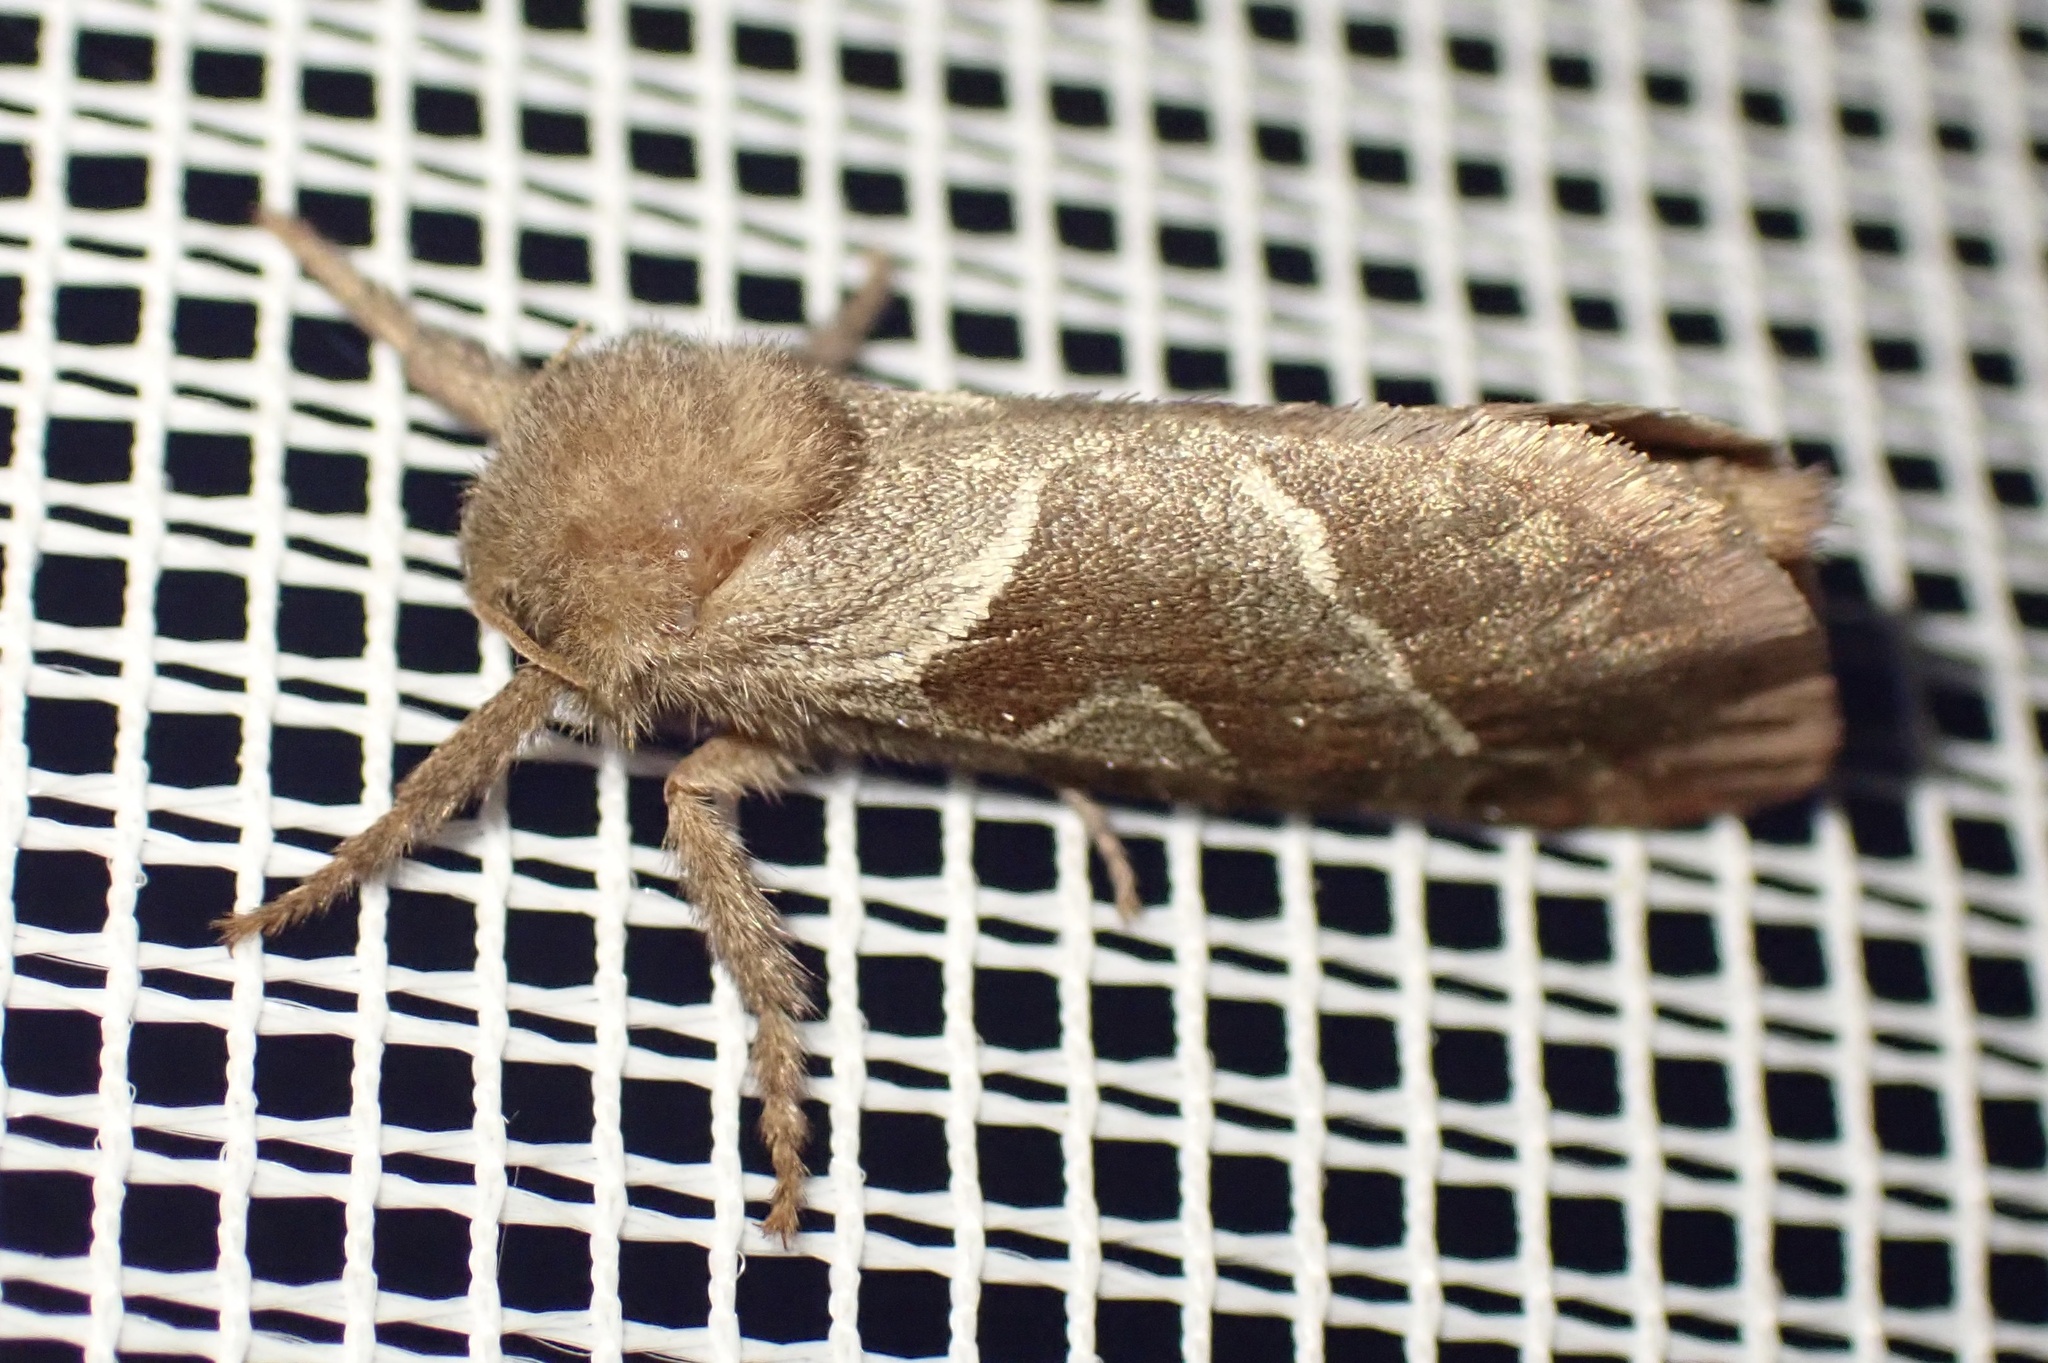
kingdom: Animalia
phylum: Arthropoda
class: Insecta
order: Lepidoptera
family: Hepialidae
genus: Triodia
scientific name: Triodia sylvina
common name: Orange swift
